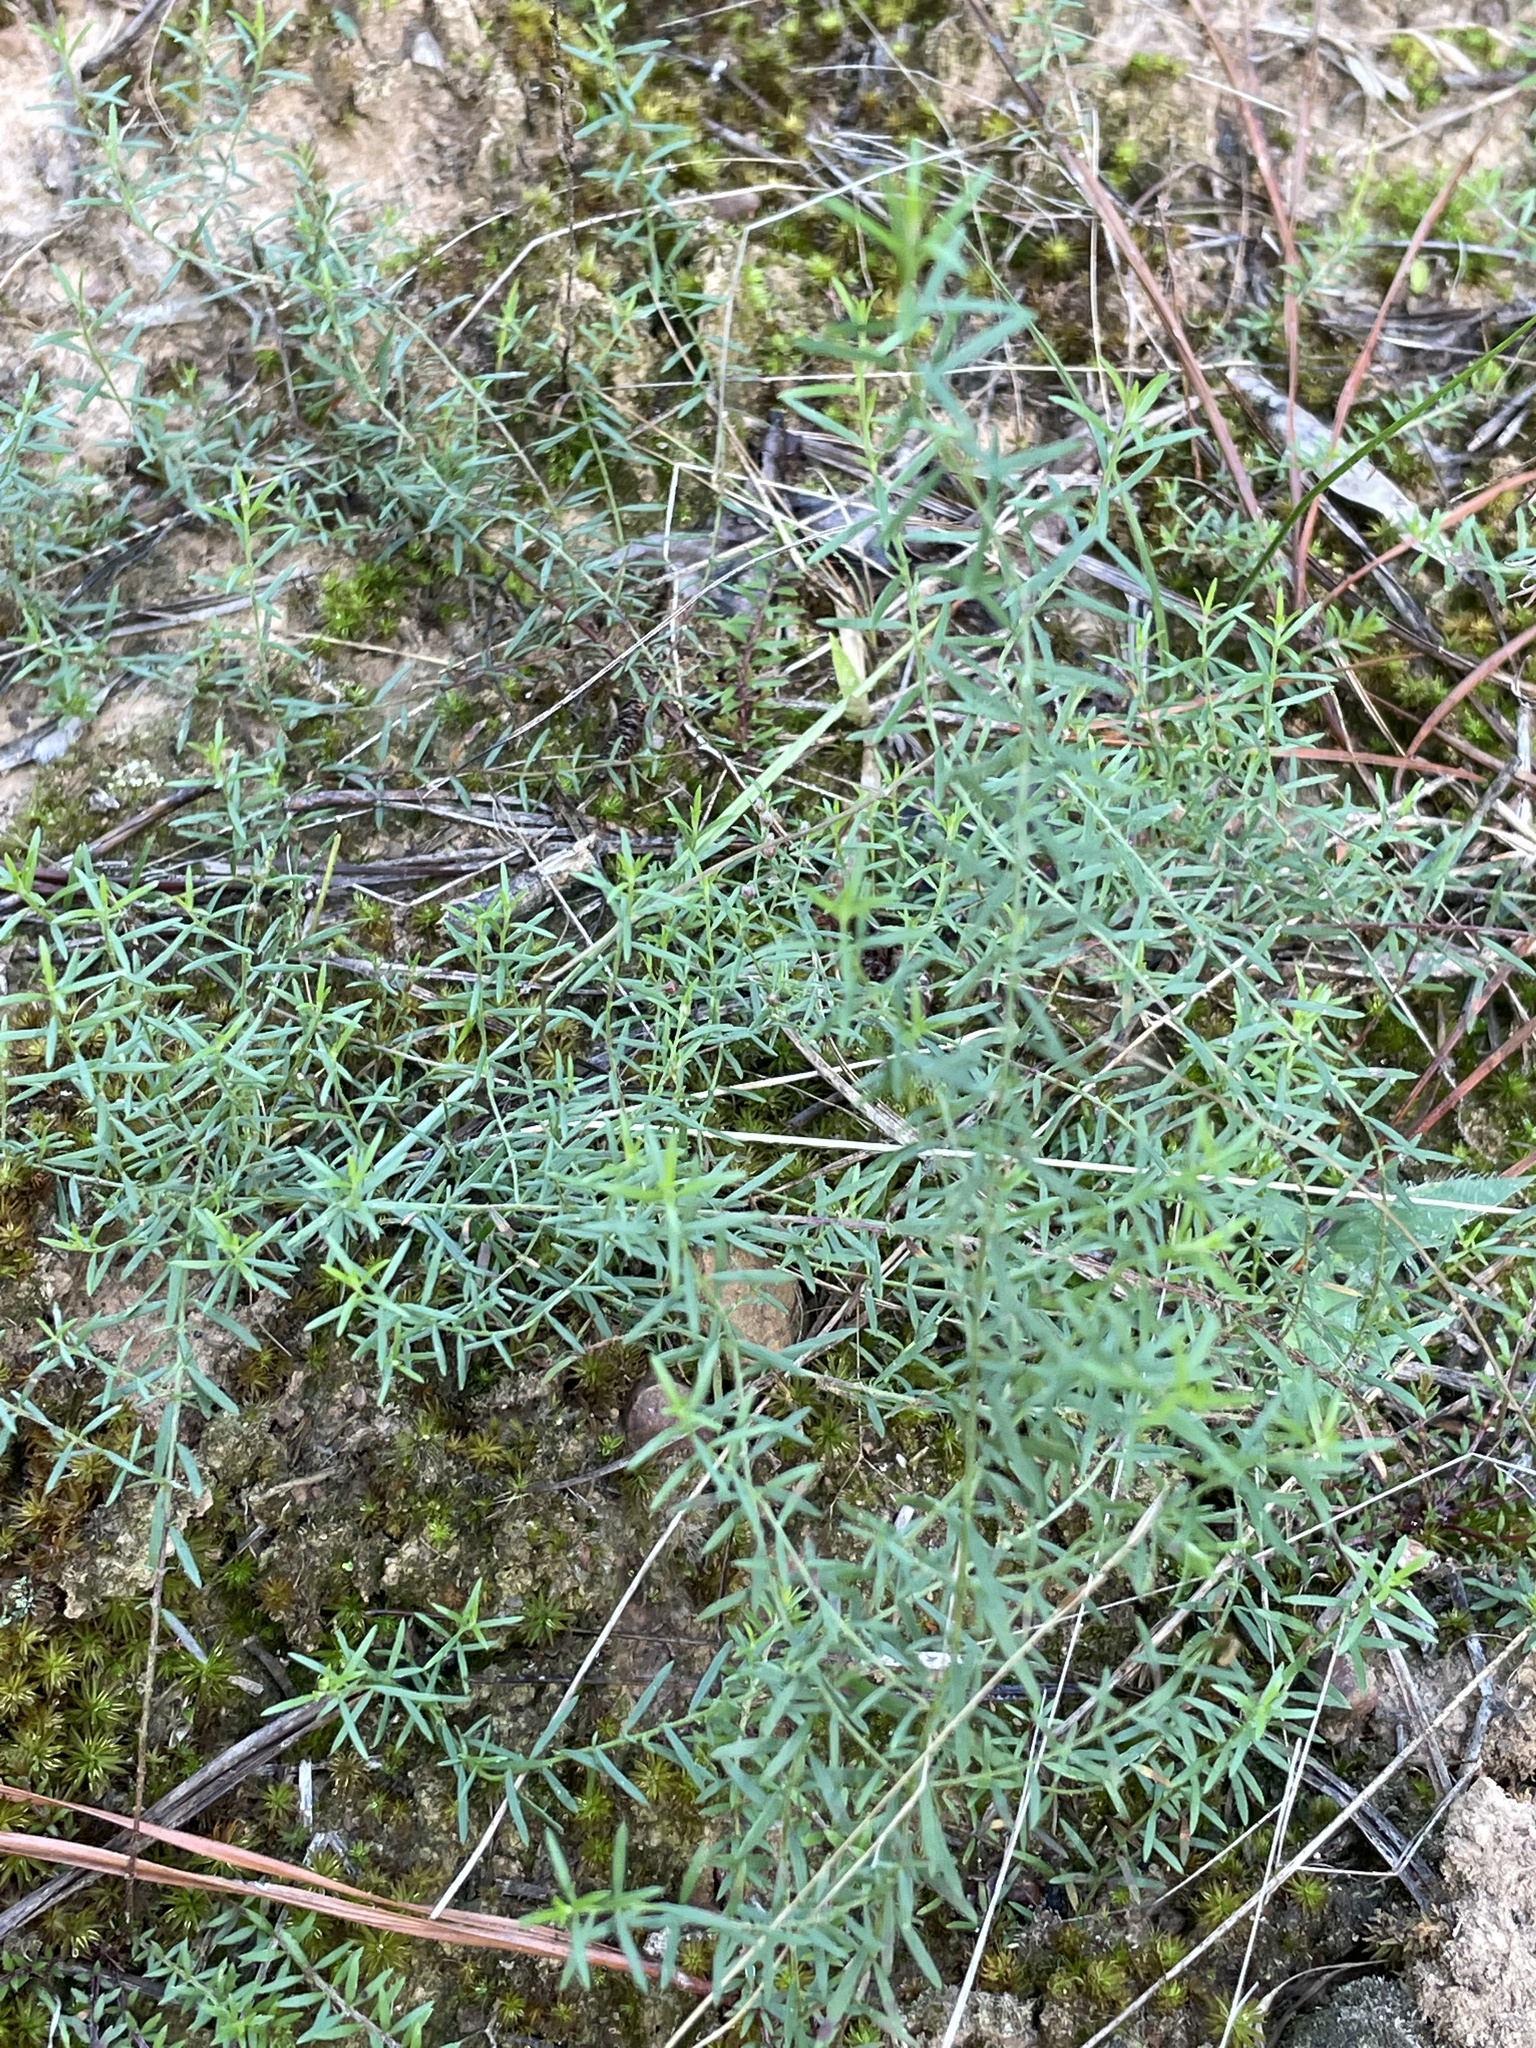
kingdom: Plantae
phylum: Tracheophyta
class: Magnoliopsida
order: Malvales
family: Cistaceae
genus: Lechea
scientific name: Lechea tenuifolia
